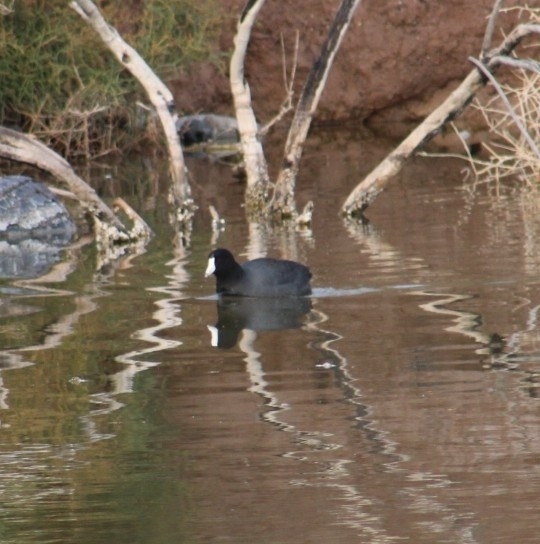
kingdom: Animalia
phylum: Chordata
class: Aves
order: Gruiformes
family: Rallidae
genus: Fulica
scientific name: Fulica americana
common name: American coot
